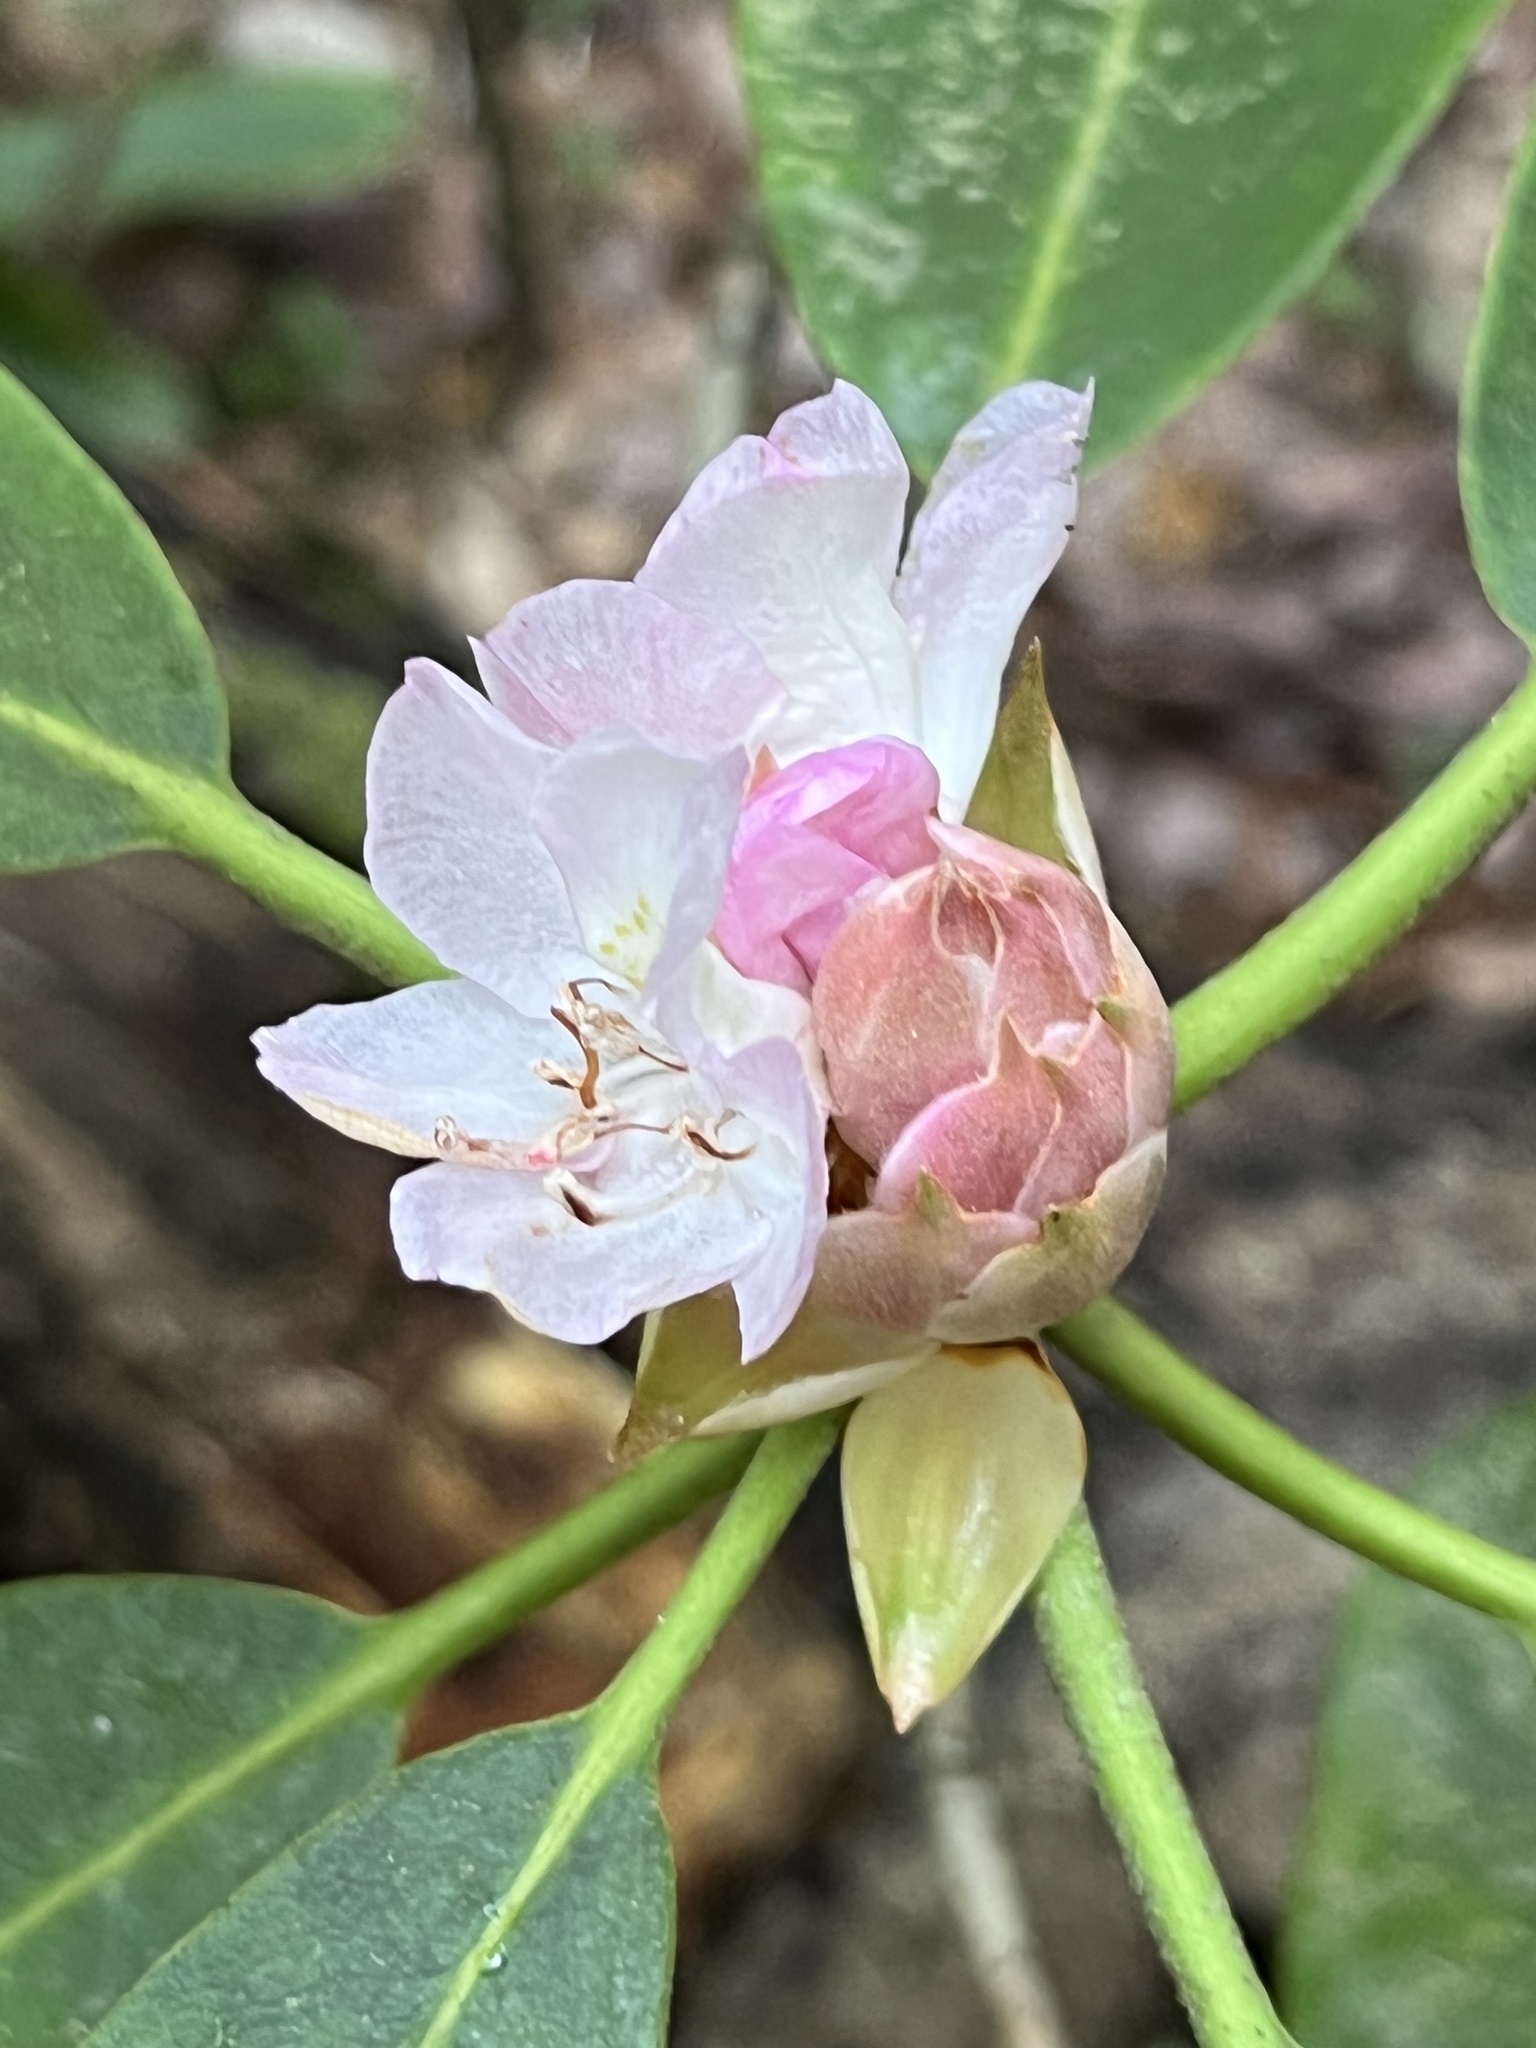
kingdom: Plantae
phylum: Tracheophyta
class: Magnoliopsida
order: Ericales
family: Ericaceae
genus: Rhododendron
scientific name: Rhododendron maximum
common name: Great rhododendron
